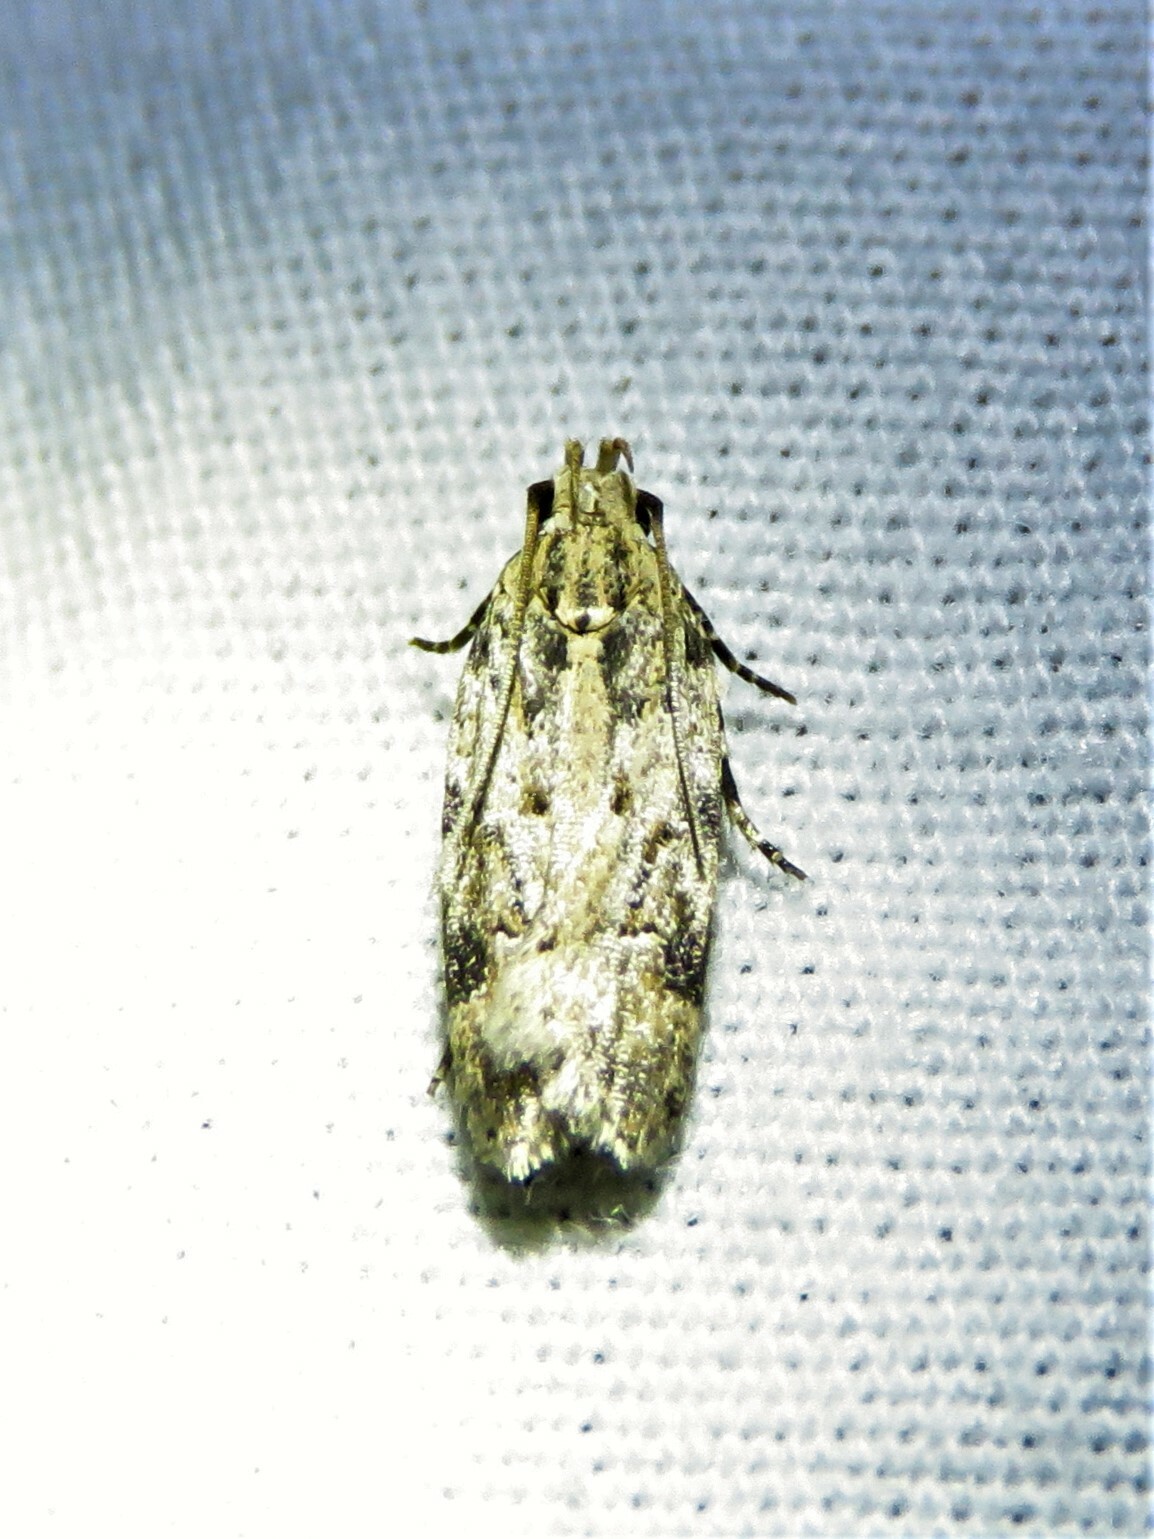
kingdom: Animalia
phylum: Arthropoda
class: Insecta
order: Lepidoptera
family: Gelechiidae
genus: Friseria
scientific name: Friseria cockerelli
